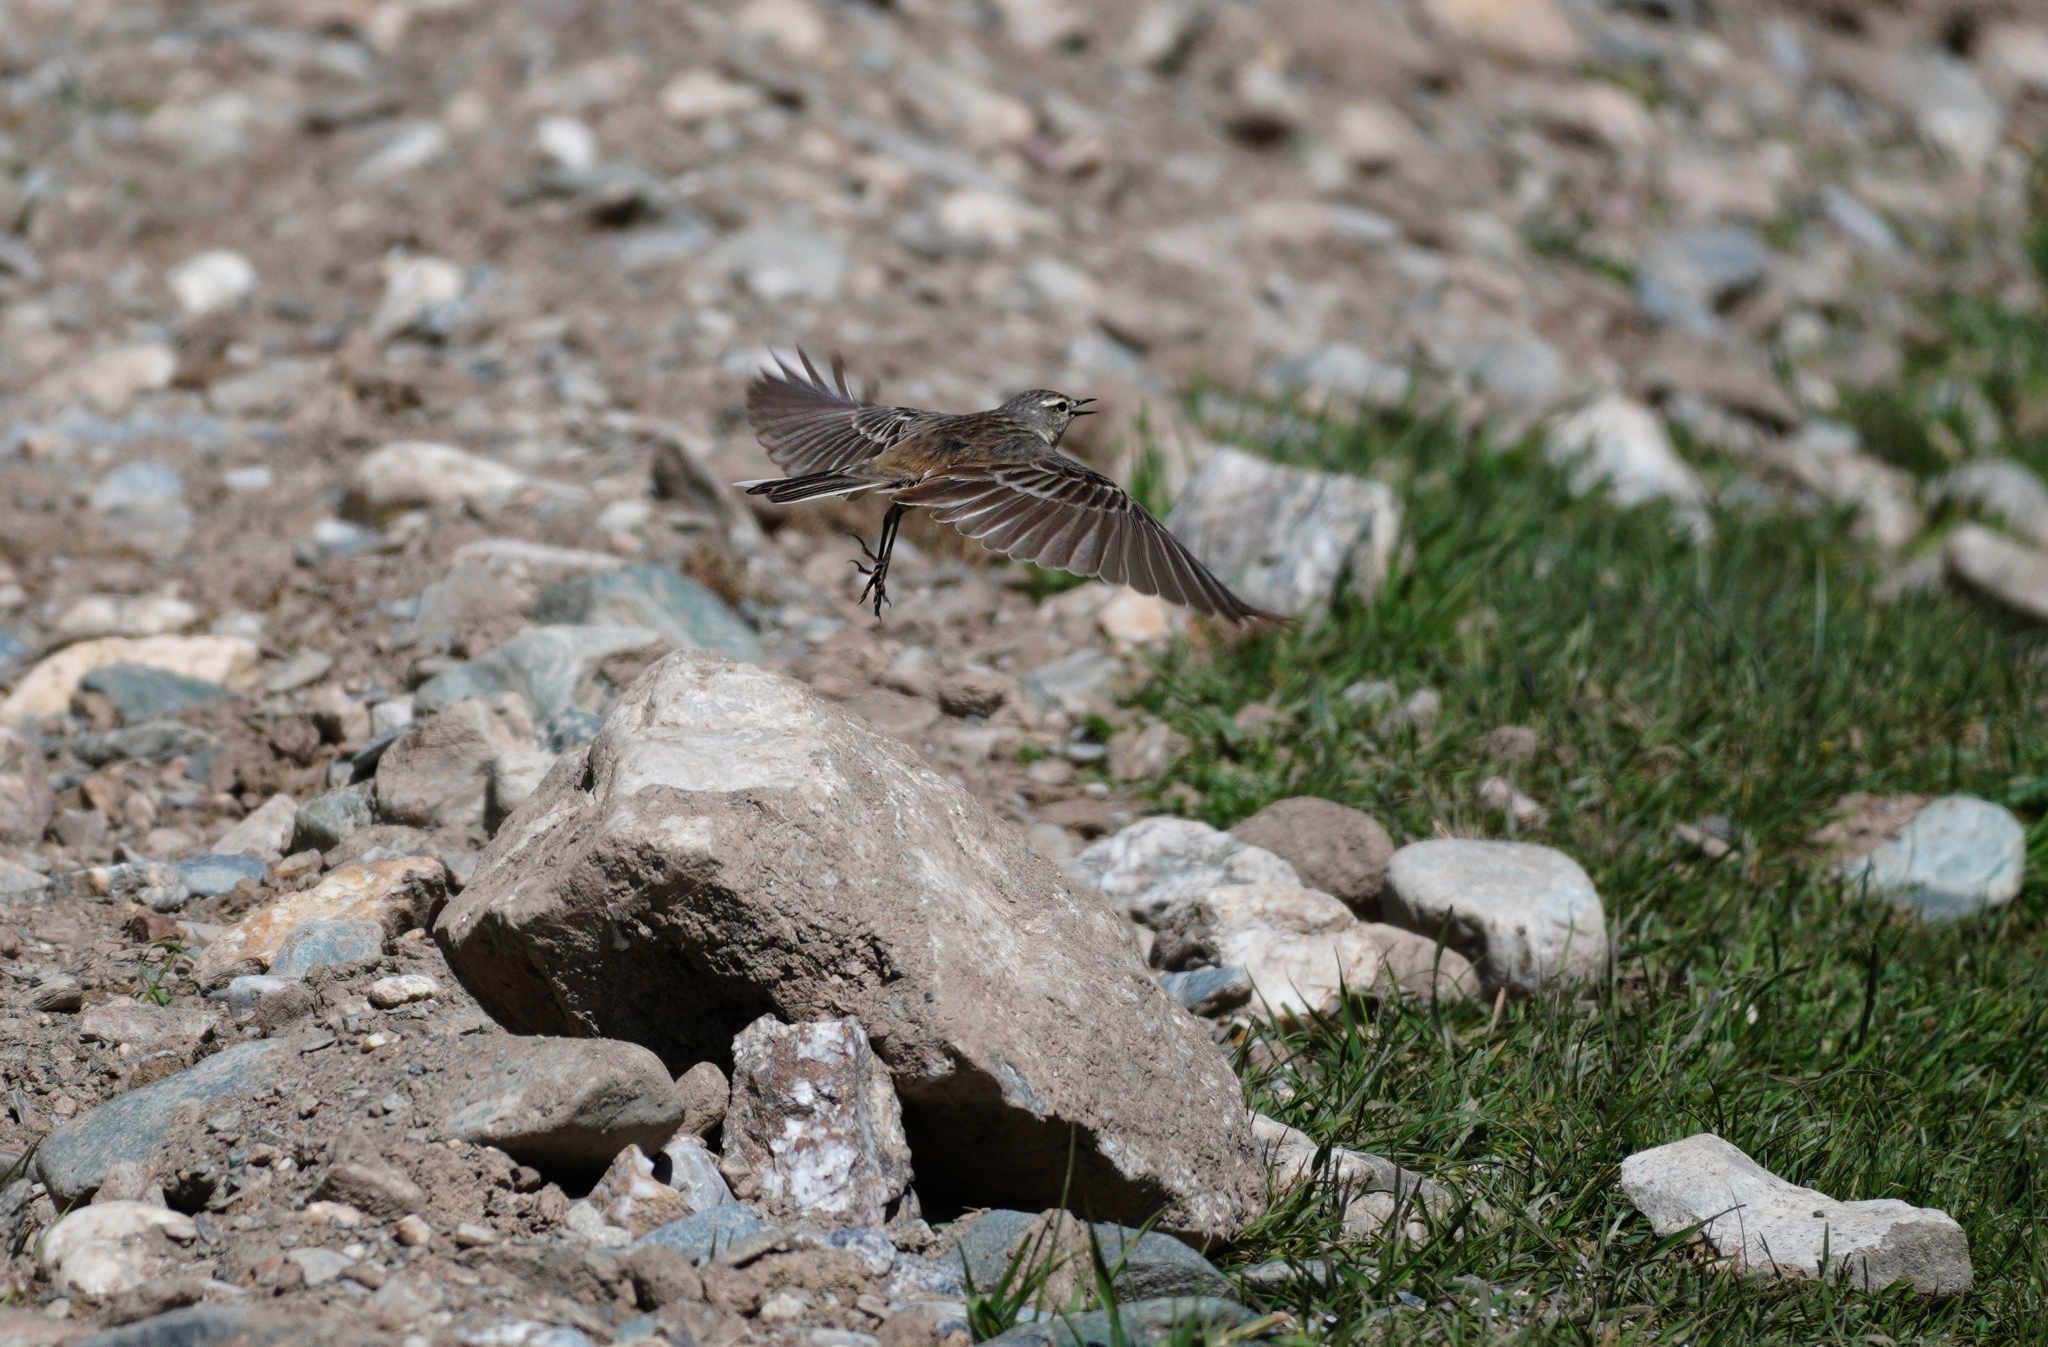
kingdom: Animalia
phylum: Chordata
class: Aves
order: Passeriformes
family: Motacillidae
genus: Anthus
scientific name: Anthus spinoletta
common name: Water pipit
